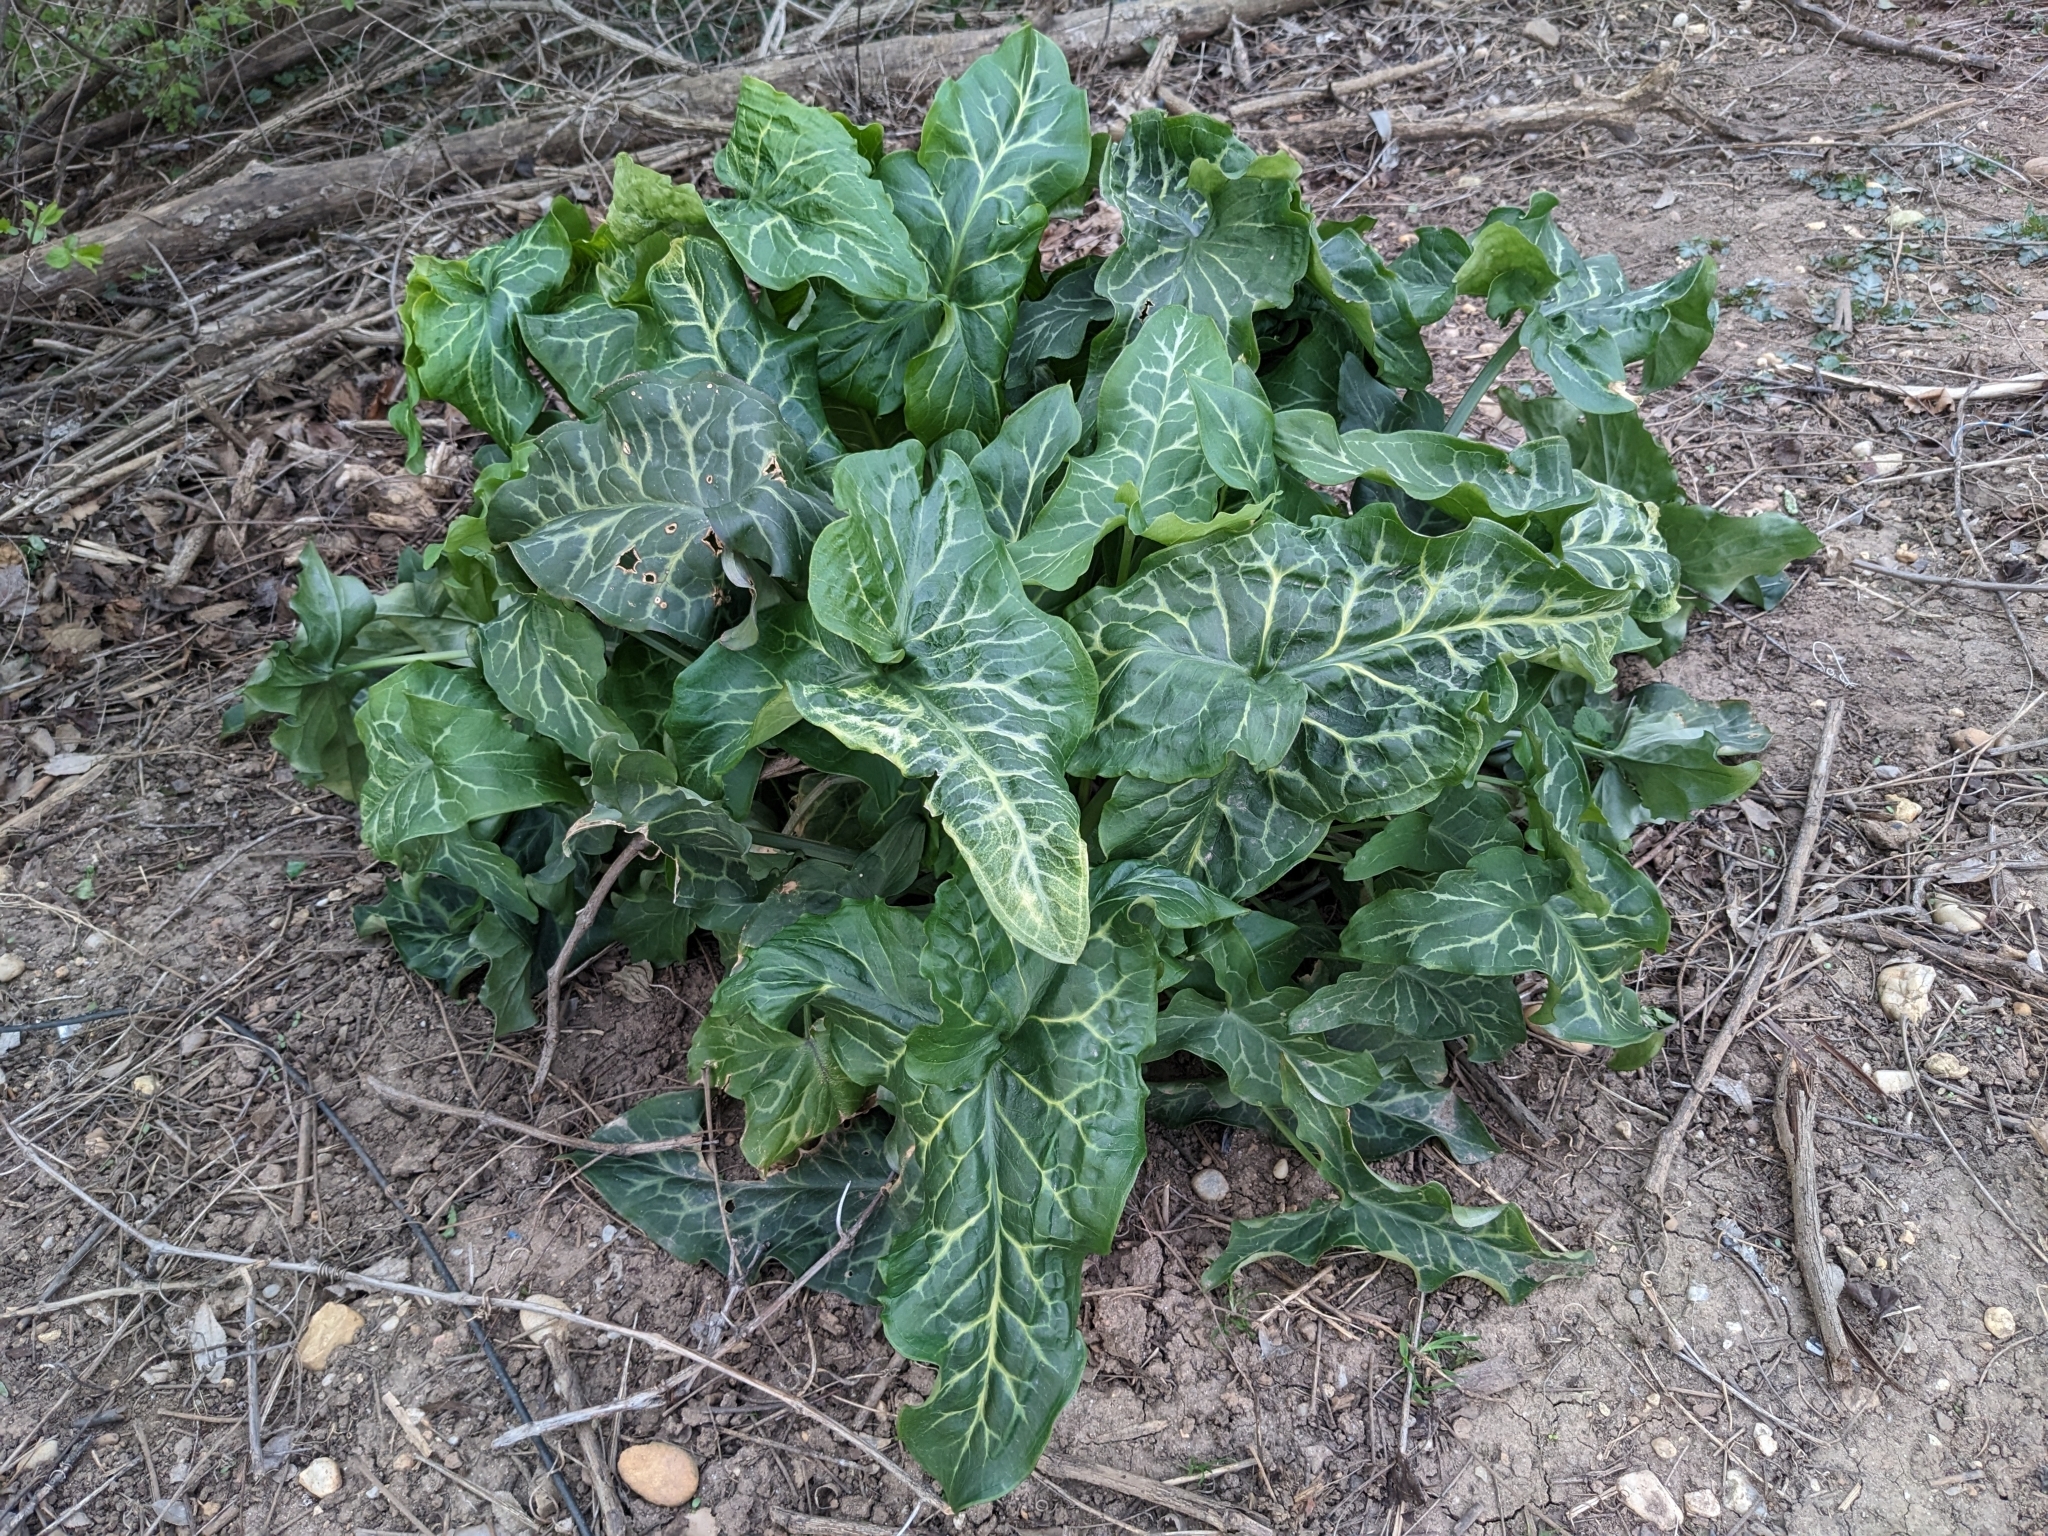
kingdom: Plantae
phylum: Tracheophyta
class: Liliopsida
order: Alismatales
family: Araceae
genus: Arum
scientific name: Arum italicum
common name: Italian lords-and-ladies
